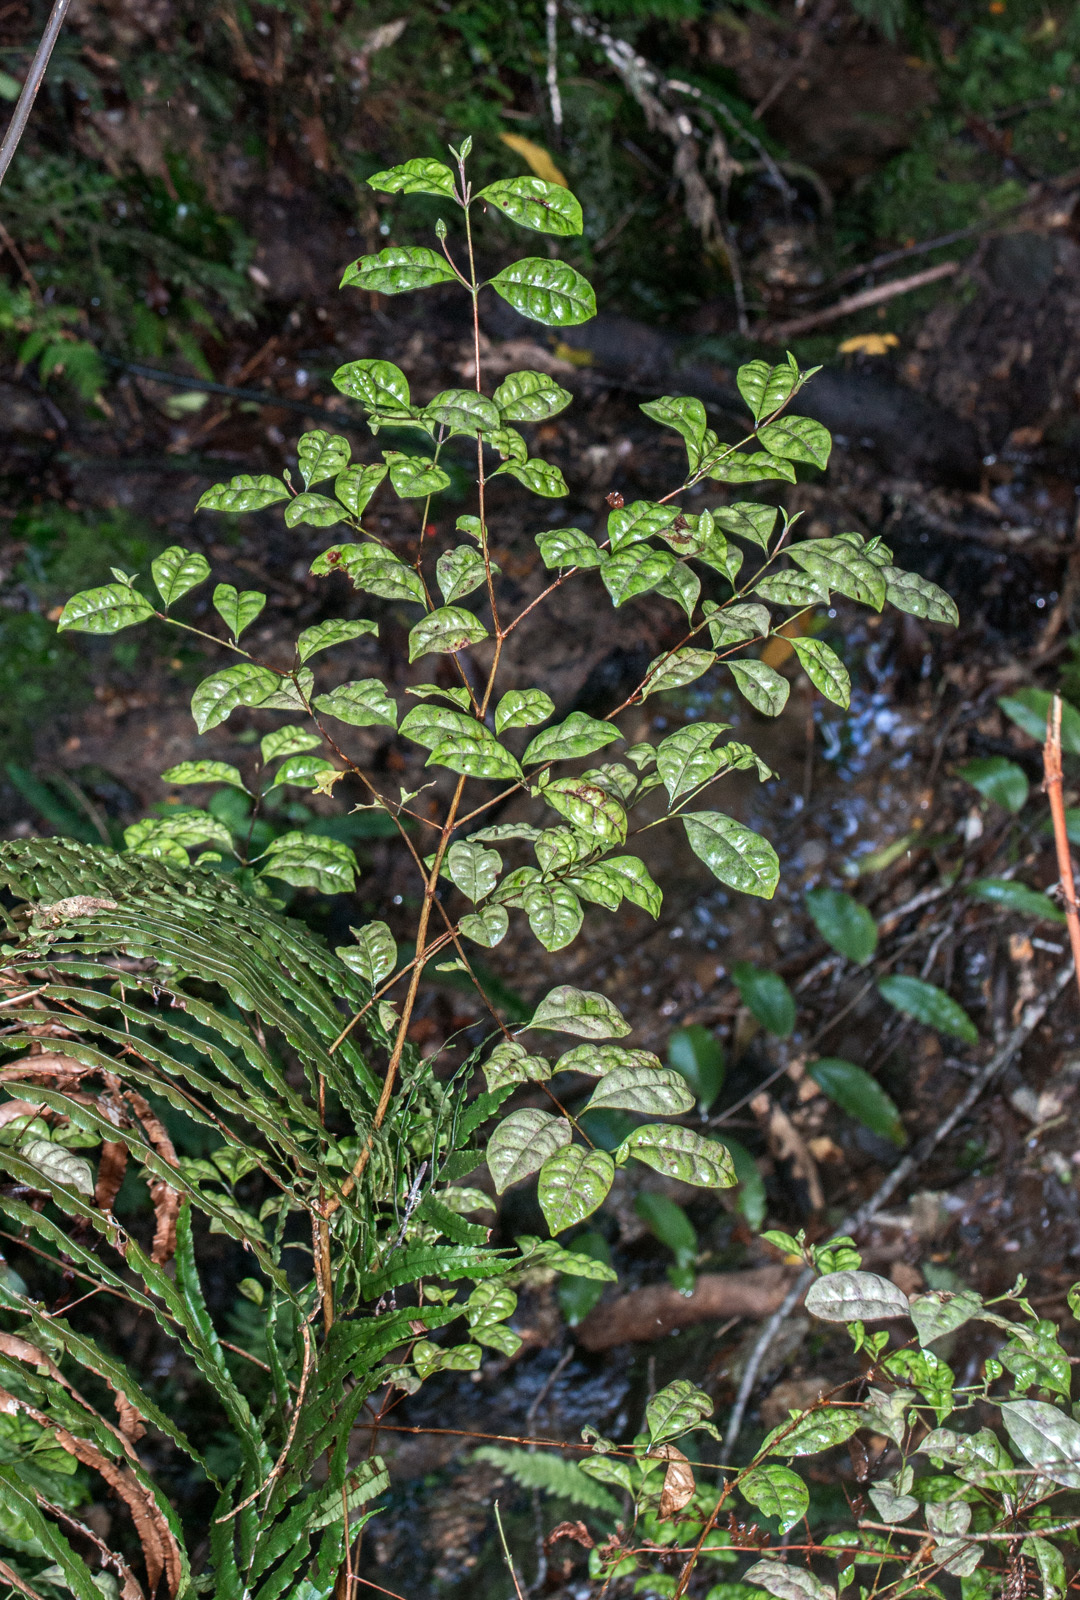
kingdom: Plantae
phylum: Tracheophyta
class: Magnoliopsida
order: Myrtales
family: Myrtaceae
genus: Lophomyrtus
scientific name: Lophomyrtus bullata
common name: Rama rama
